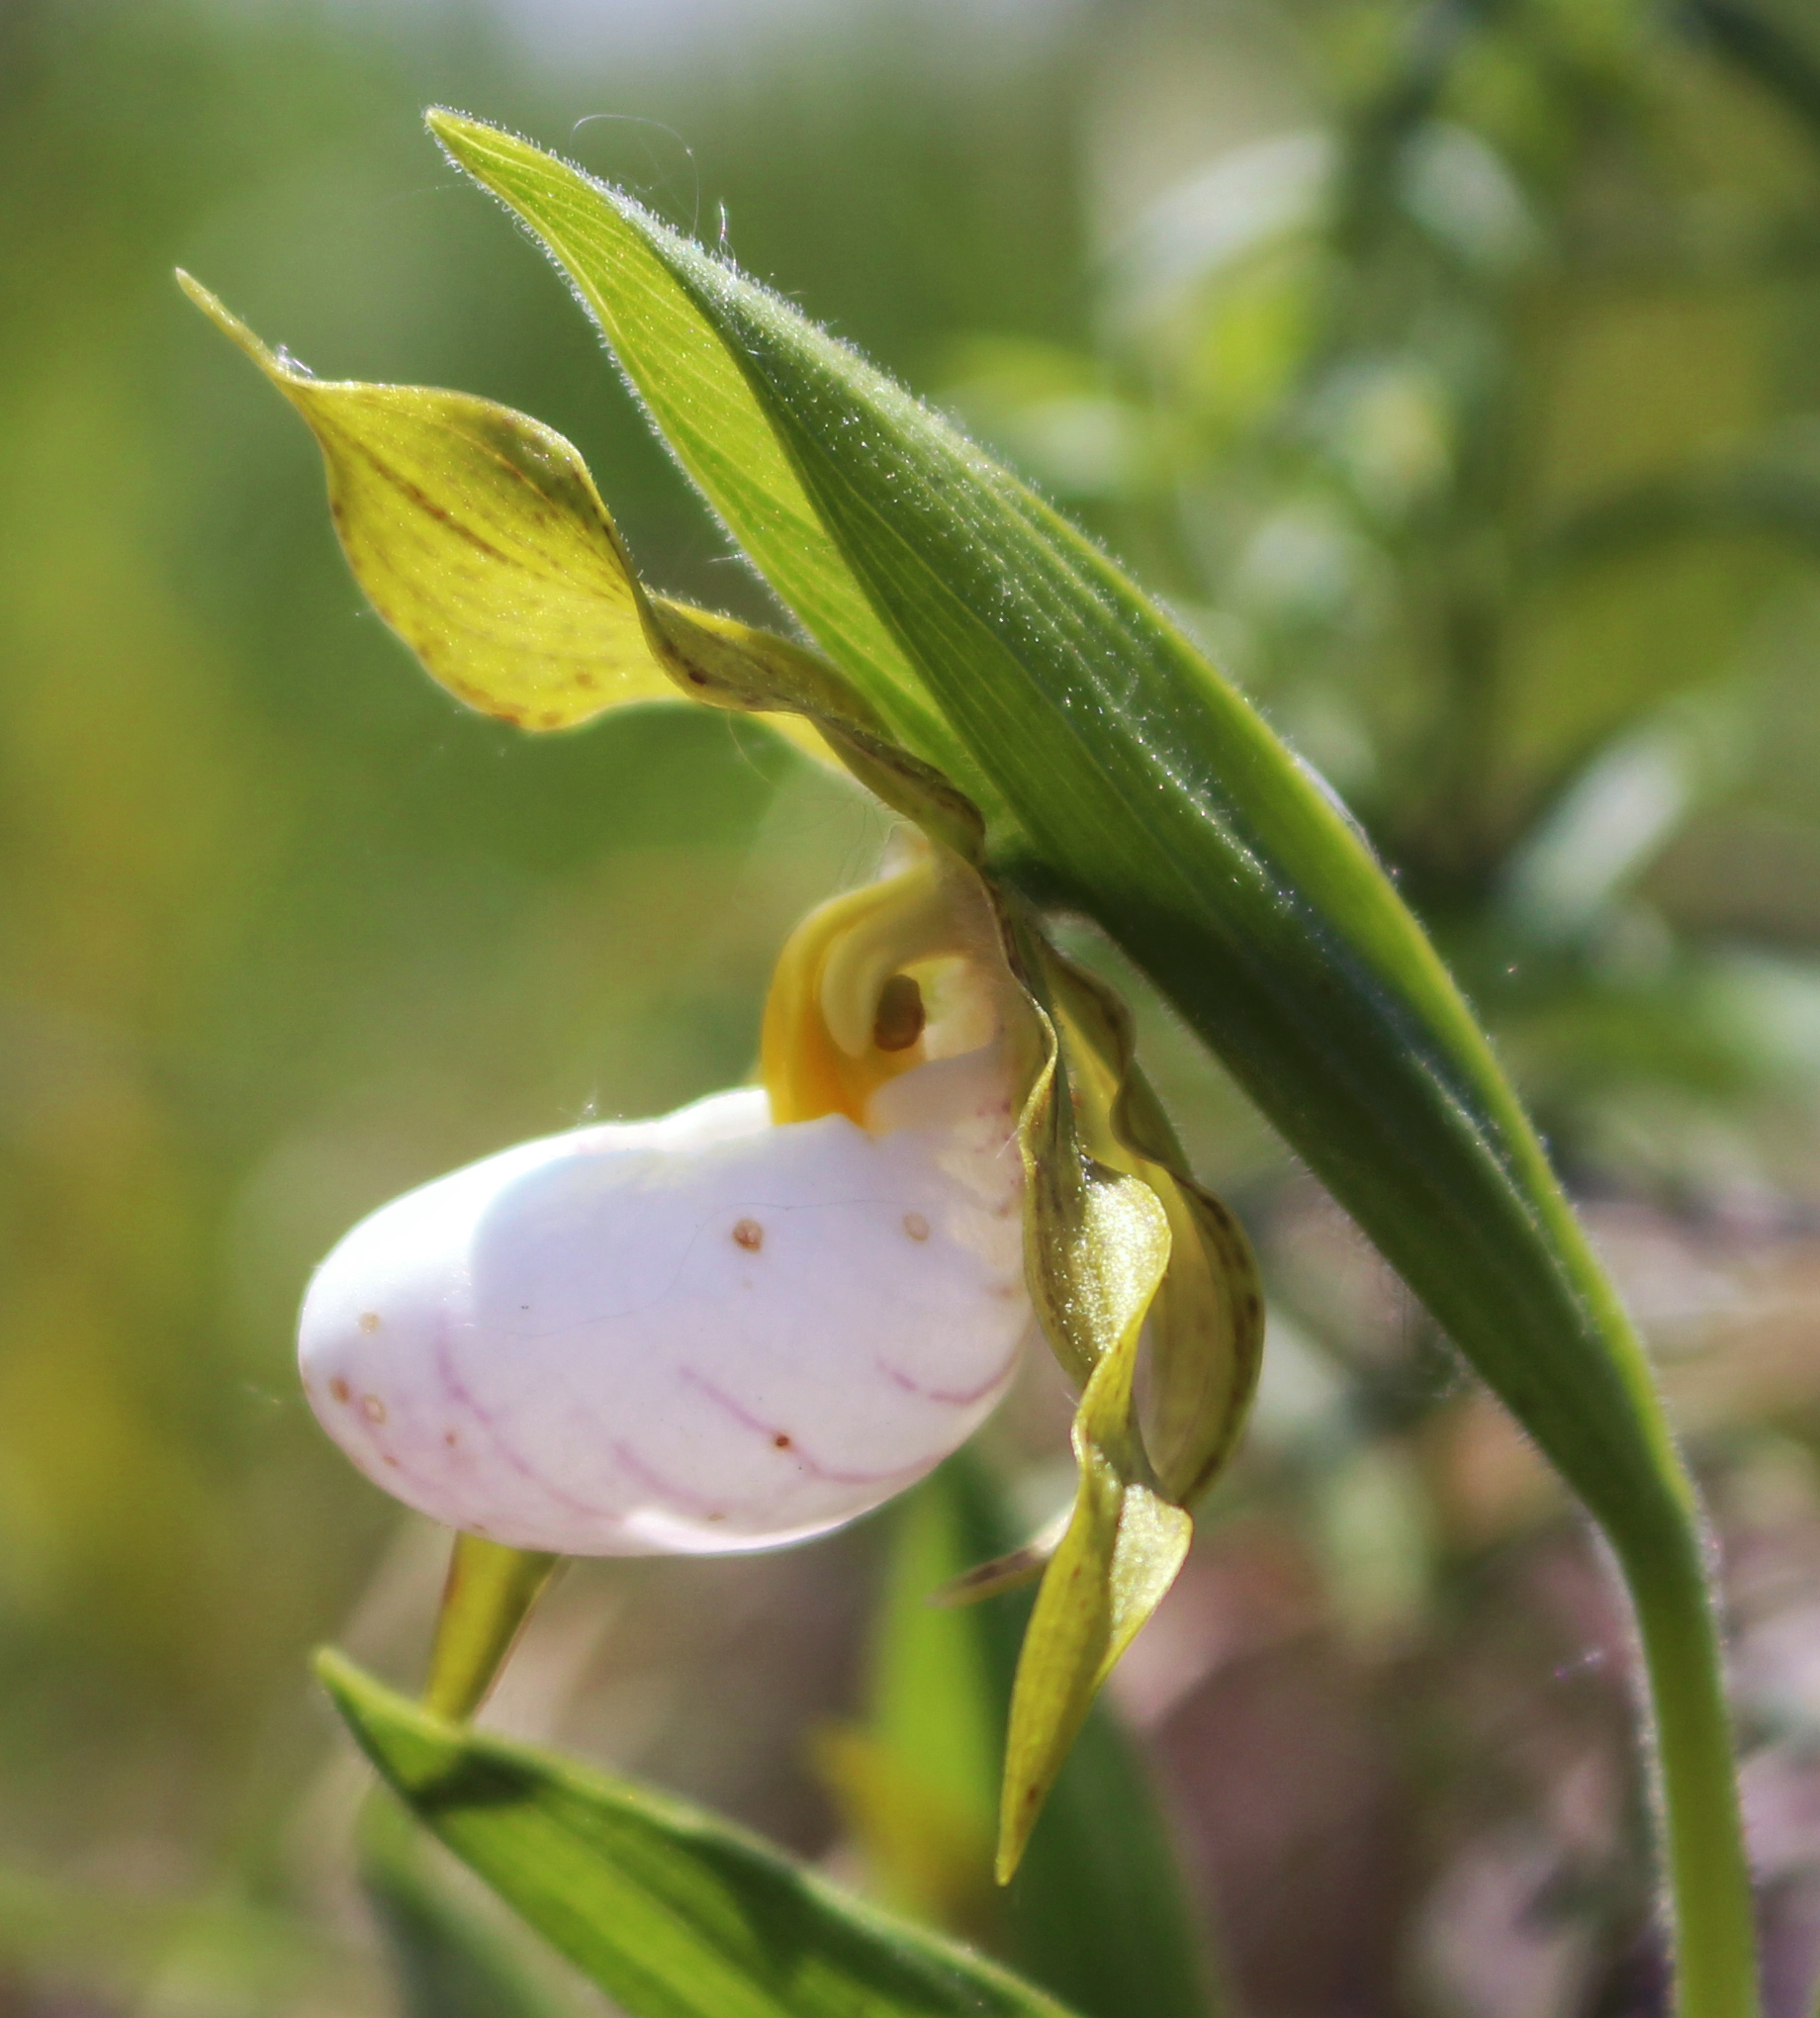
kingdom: Plantae
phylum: Tracheophyta
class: Liliopsida
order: Asparagales
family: Orchidaceae
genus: Cypripedium
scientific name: Cypripedium candidum
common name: White lady's-slipper
